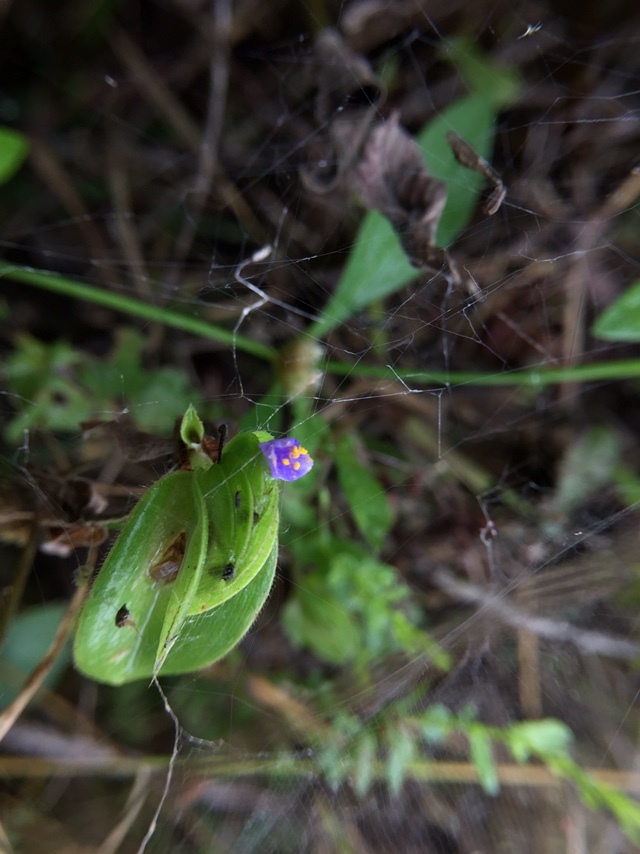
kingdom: Plantae
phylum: Tracheophyta
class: Liliopsida
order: Commelinales
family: Commelinaceae
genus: Cyanotis
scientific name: Cyanotis cristata
